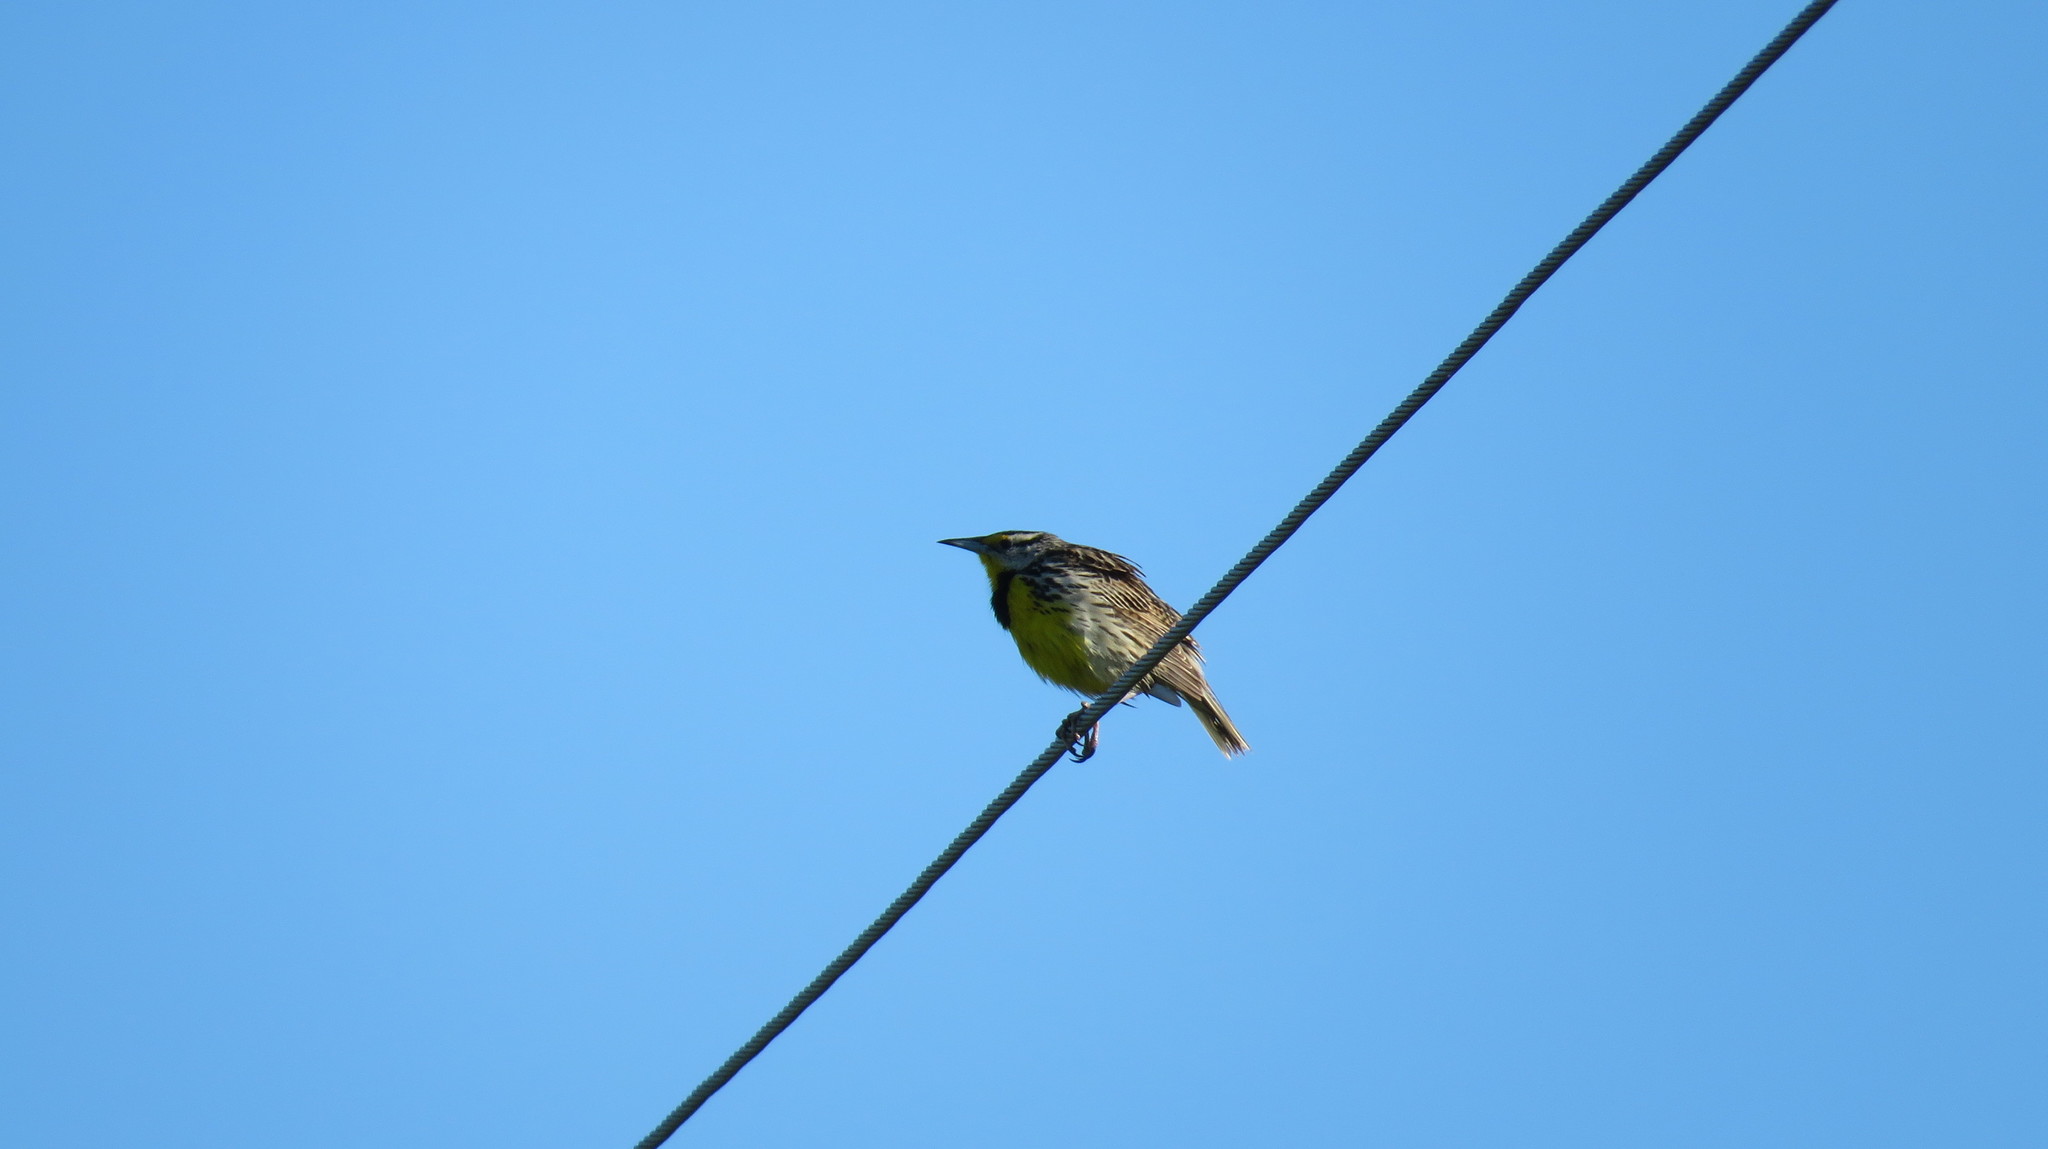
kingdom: Animalia
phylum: Chordata
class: Aves
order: Passeriformes
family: Icteridae
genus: Sturnella
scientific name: Sturnella magna
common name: Eastern meadowlark
